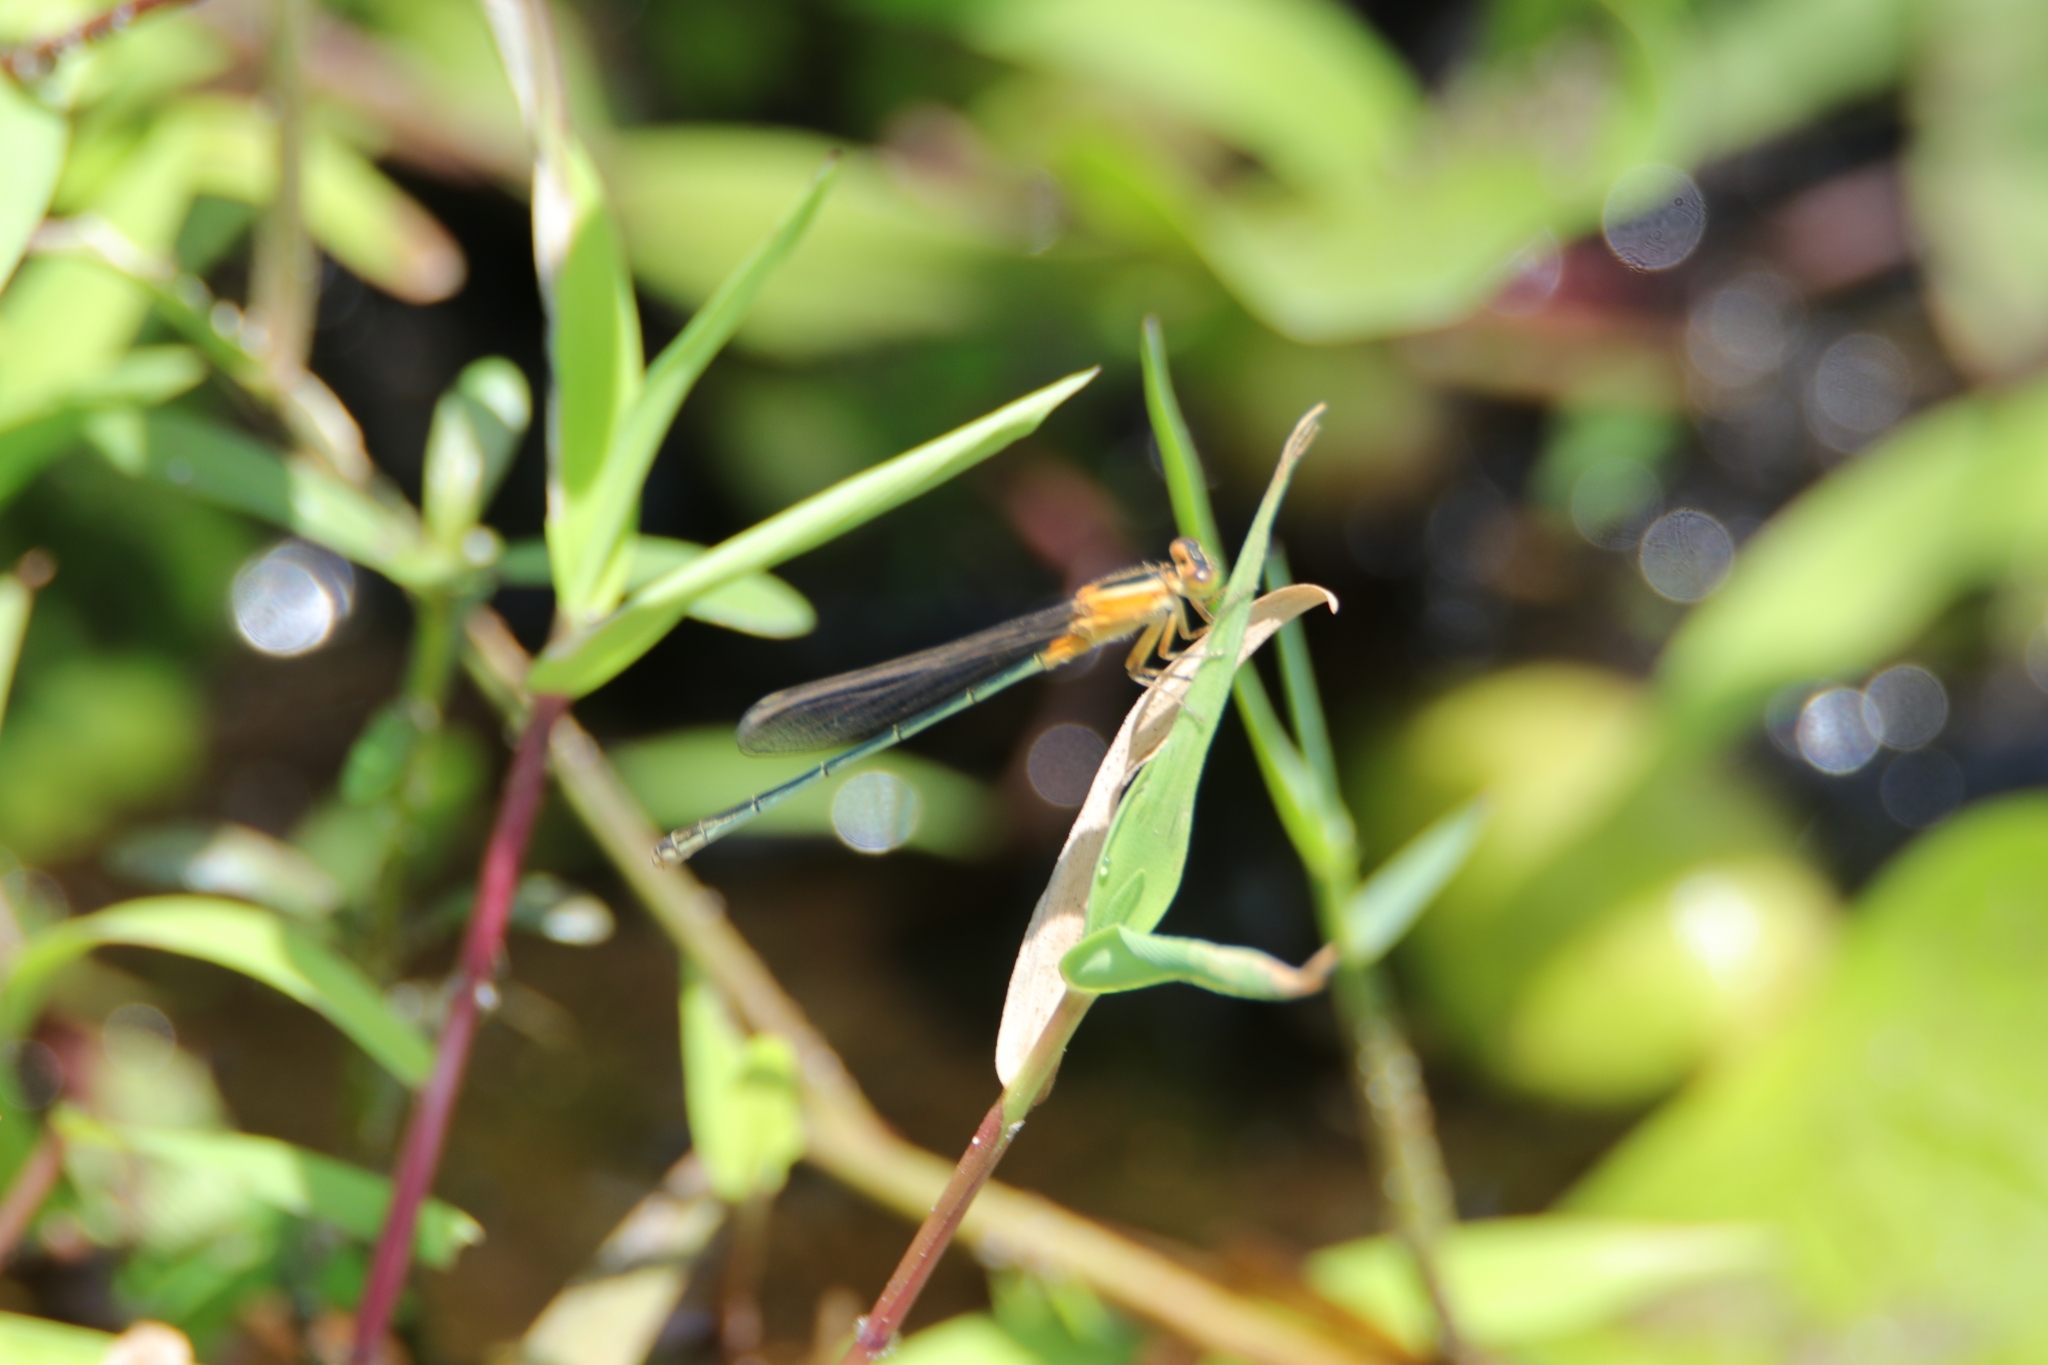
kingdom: Animalia
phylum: Arthropoda
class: Insecta
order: Odonata
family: Coenagrionidae
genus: Ischnura
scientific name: Ischnura senegalensis
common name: Tropical bluetail
